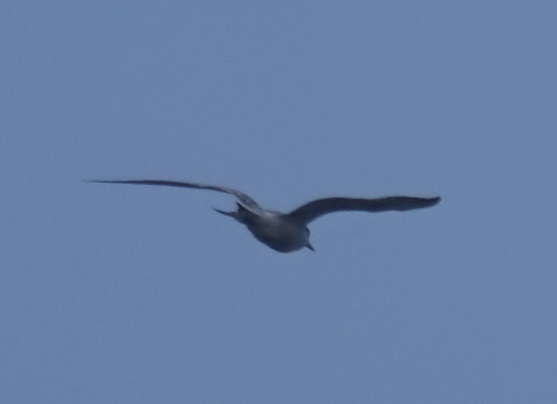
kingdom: Animalia
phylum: Chordata
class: Aves
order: Charadriiformes
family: Laridae
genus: Thalasseus
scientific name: Thalasseus bergii
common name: Greater crested tern
